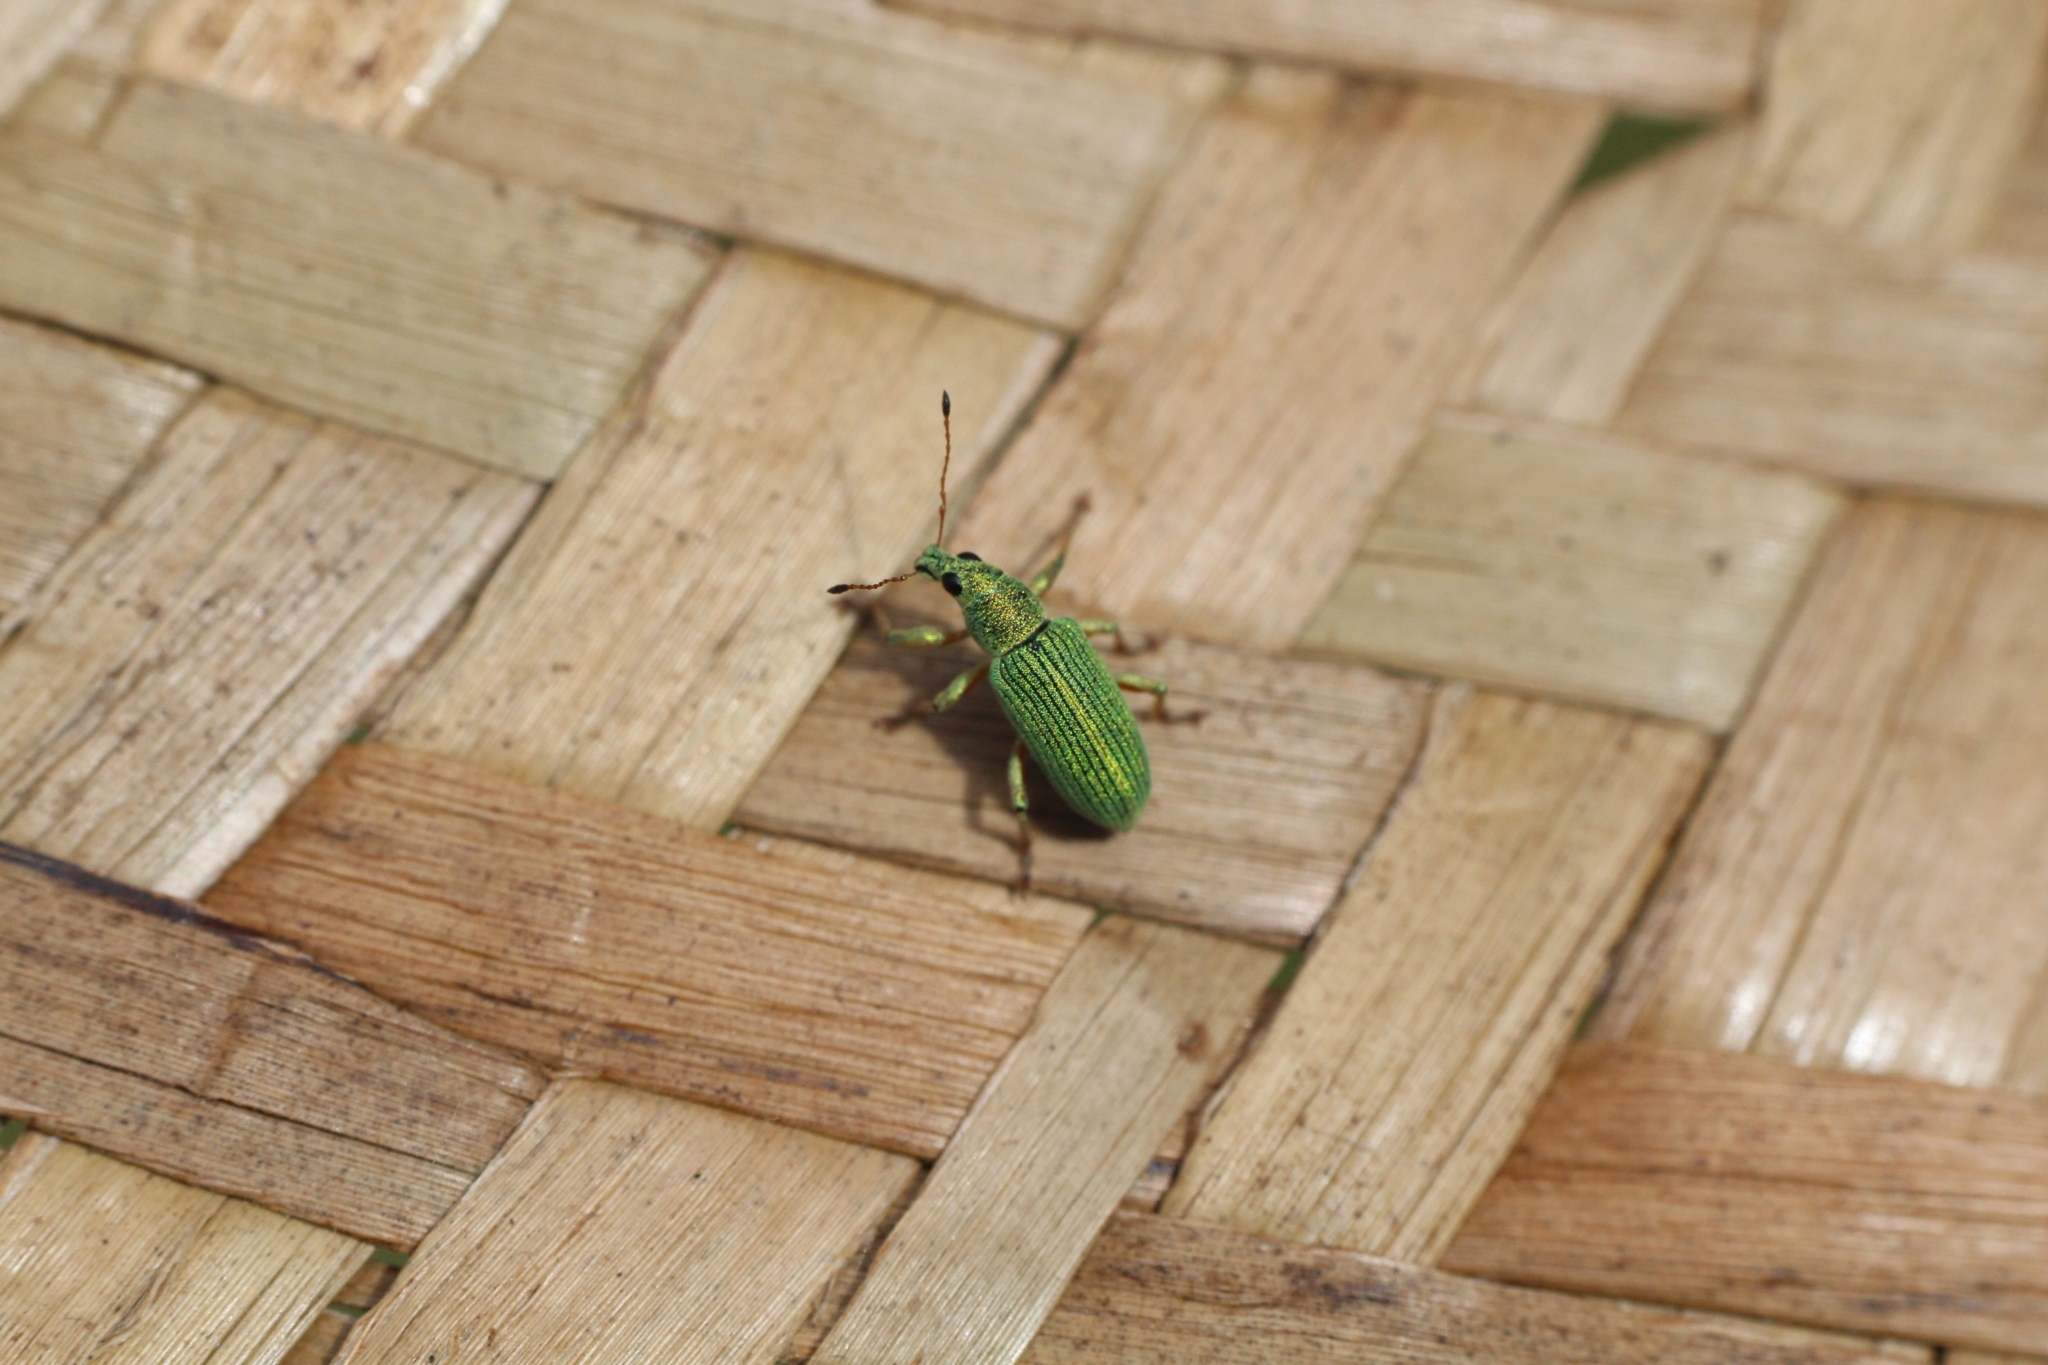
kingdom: Animalia
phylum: Arthropoda
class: Insecta
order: Coleoptera
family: Curculionidae
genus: Polydrusus
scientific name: Polydrusus formosus
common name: Weevil
